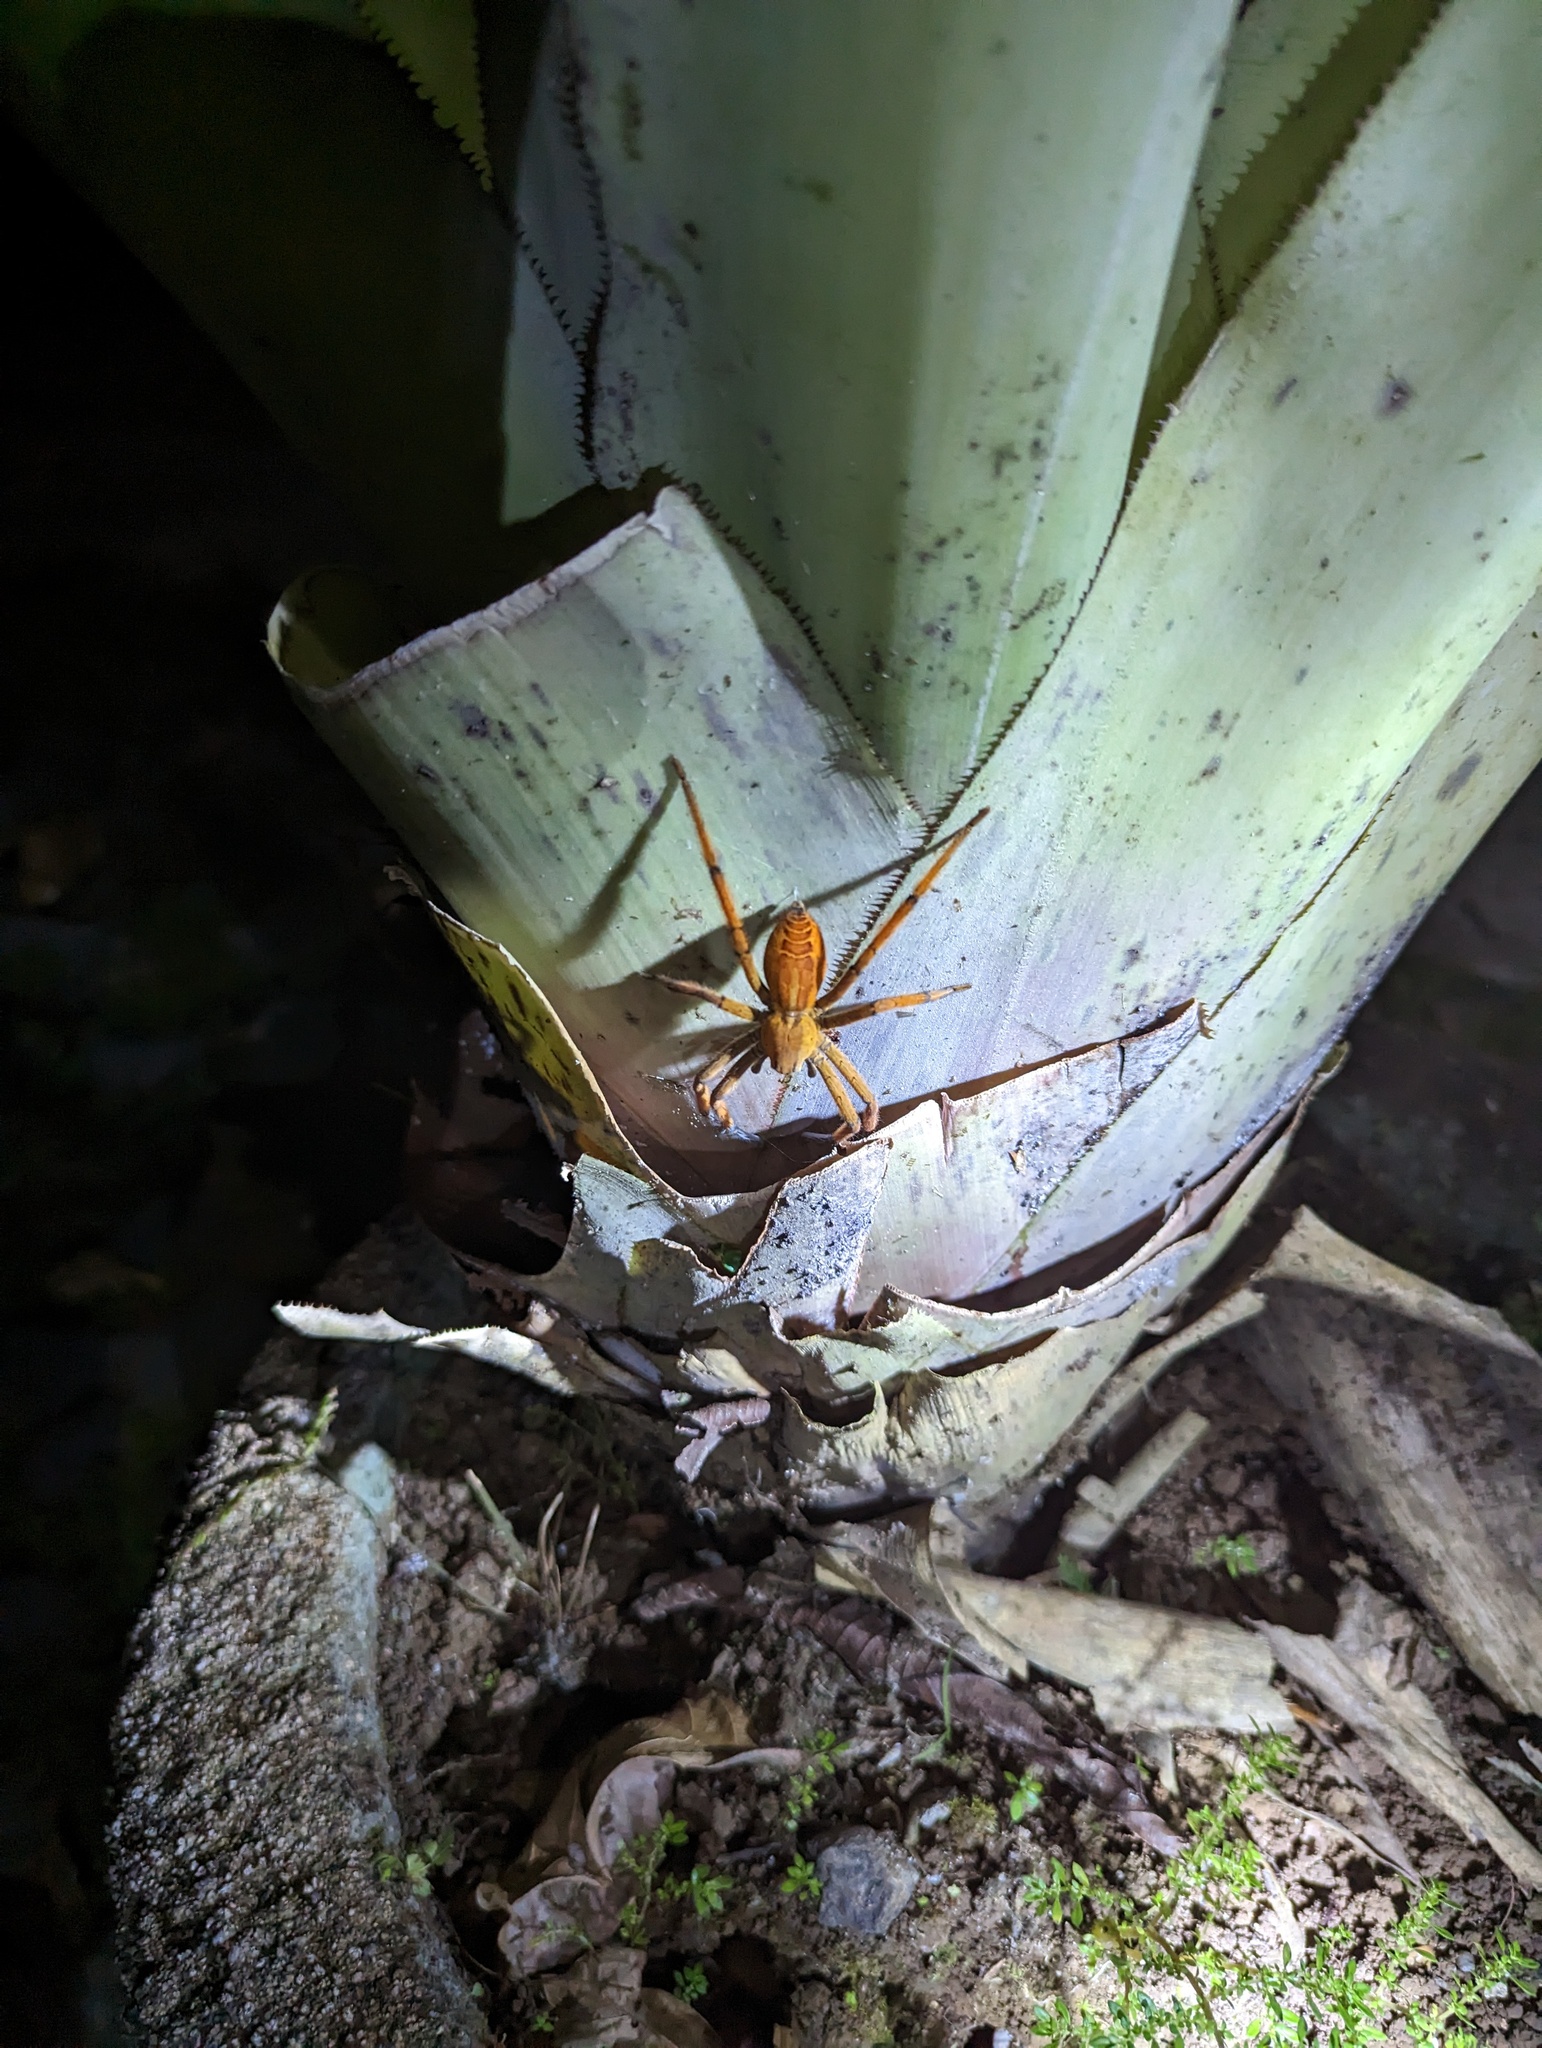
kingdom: Animalia
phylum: Arthropoda
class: Arachnida
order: Araneae
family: Trechaleidae
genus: Cupiennius
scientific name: Cupiennius getazi
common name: Wandering spiders
